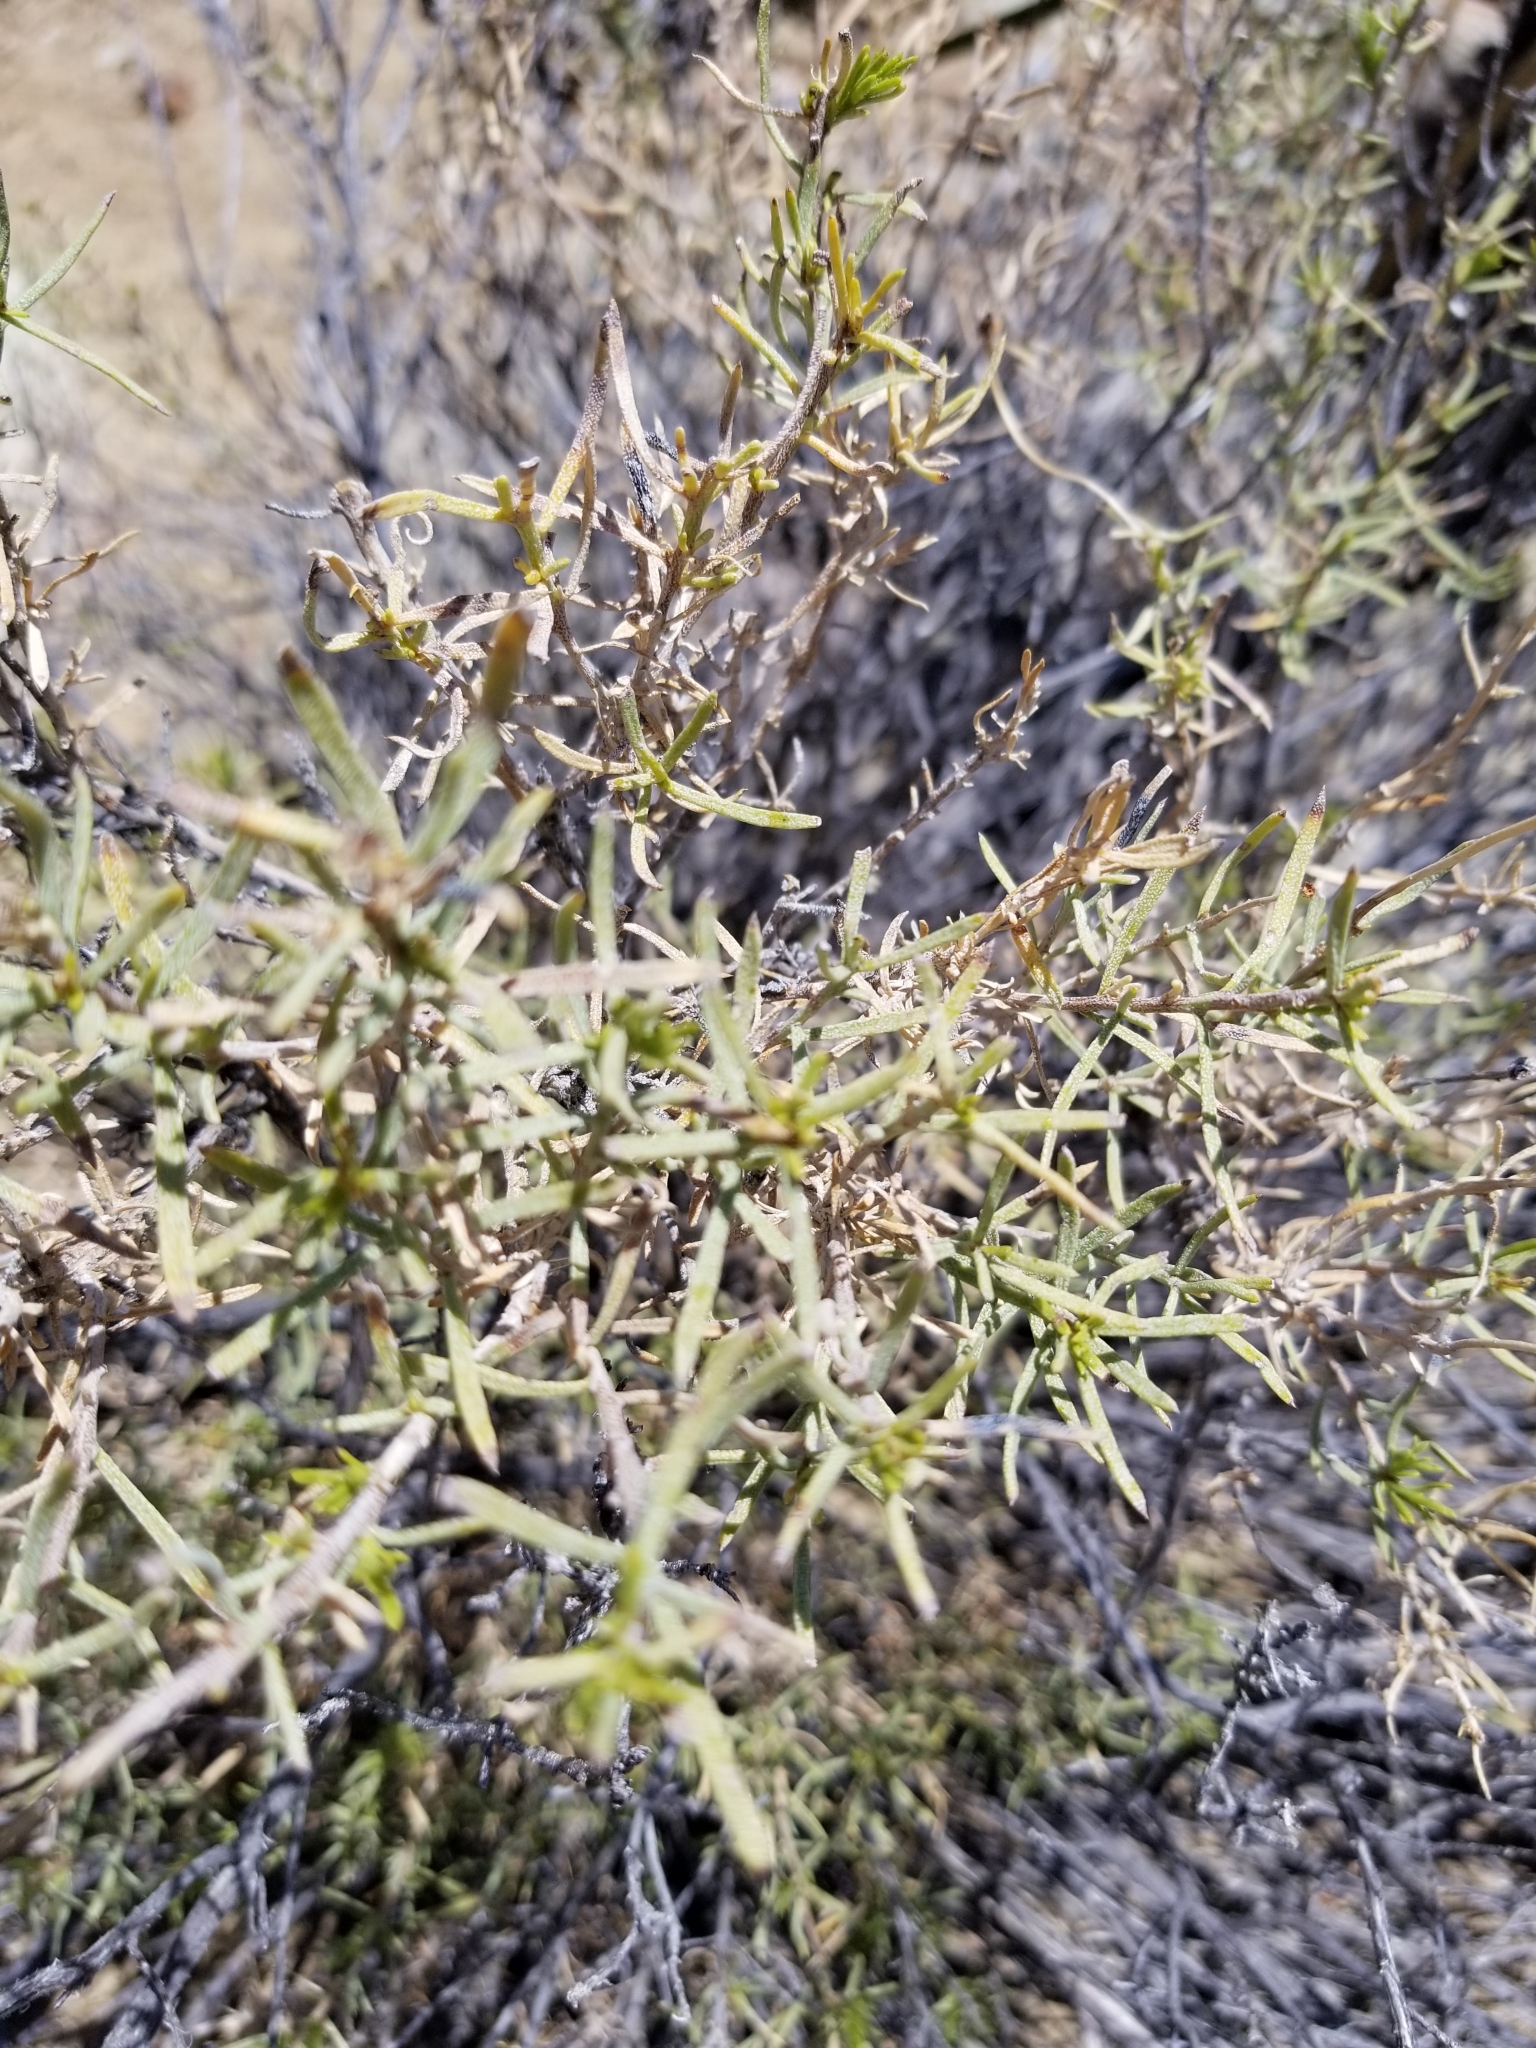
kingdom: Plantae
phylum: Tracheophyta
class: Magnoliopsida
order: Asterales
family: Asteraceae
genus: Ericameria
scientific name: Ericameria linearifolia
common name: Interior goldenbush
